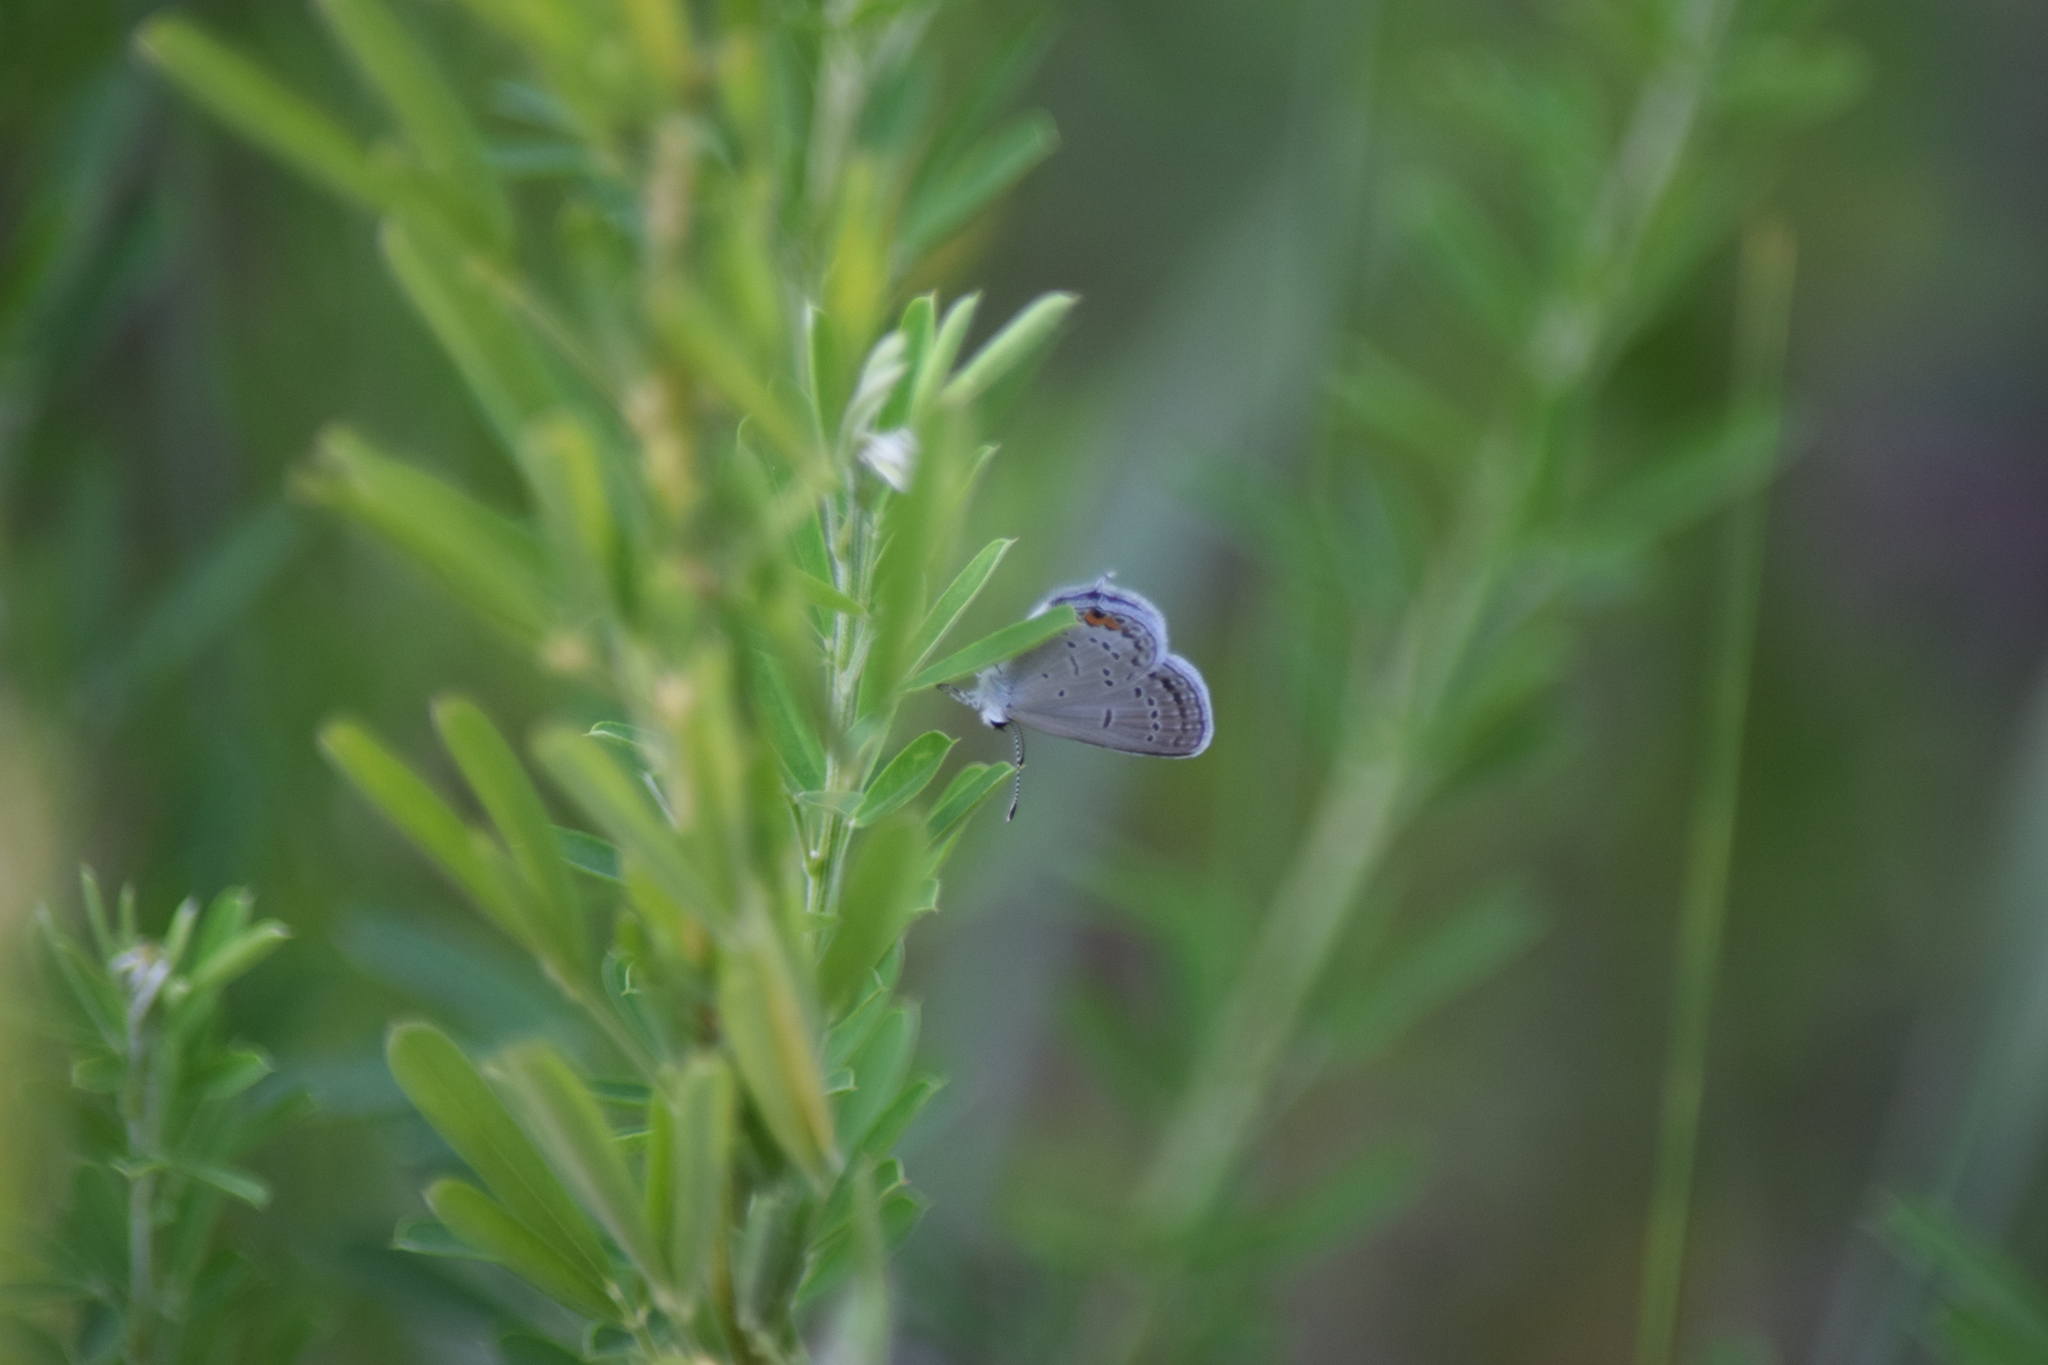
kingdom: Animalia
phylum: Arthropoda
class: Insecta
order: Lepidoptera
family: Lycaenidae
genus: Elkalyce
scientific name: Elkalyce comyntas
